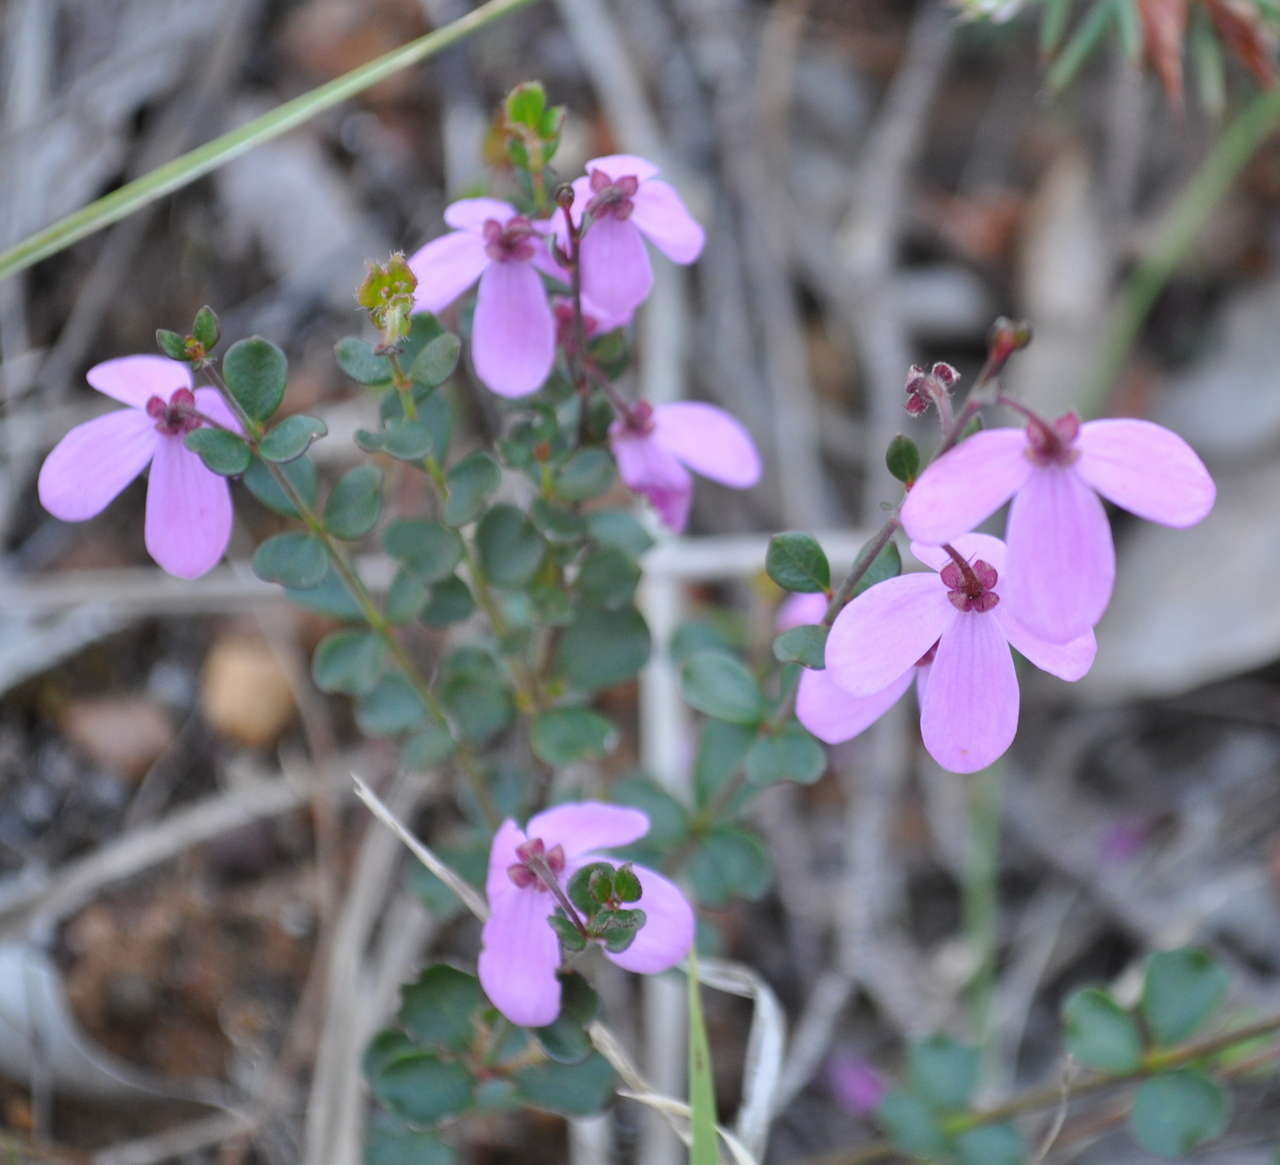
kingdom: Plantae
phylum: Tracheophyta
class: Magnoliopsida
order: Oxalidales
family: Elaeocarpaceae
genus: Tetratheca
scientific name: Tetratheca ciliata
